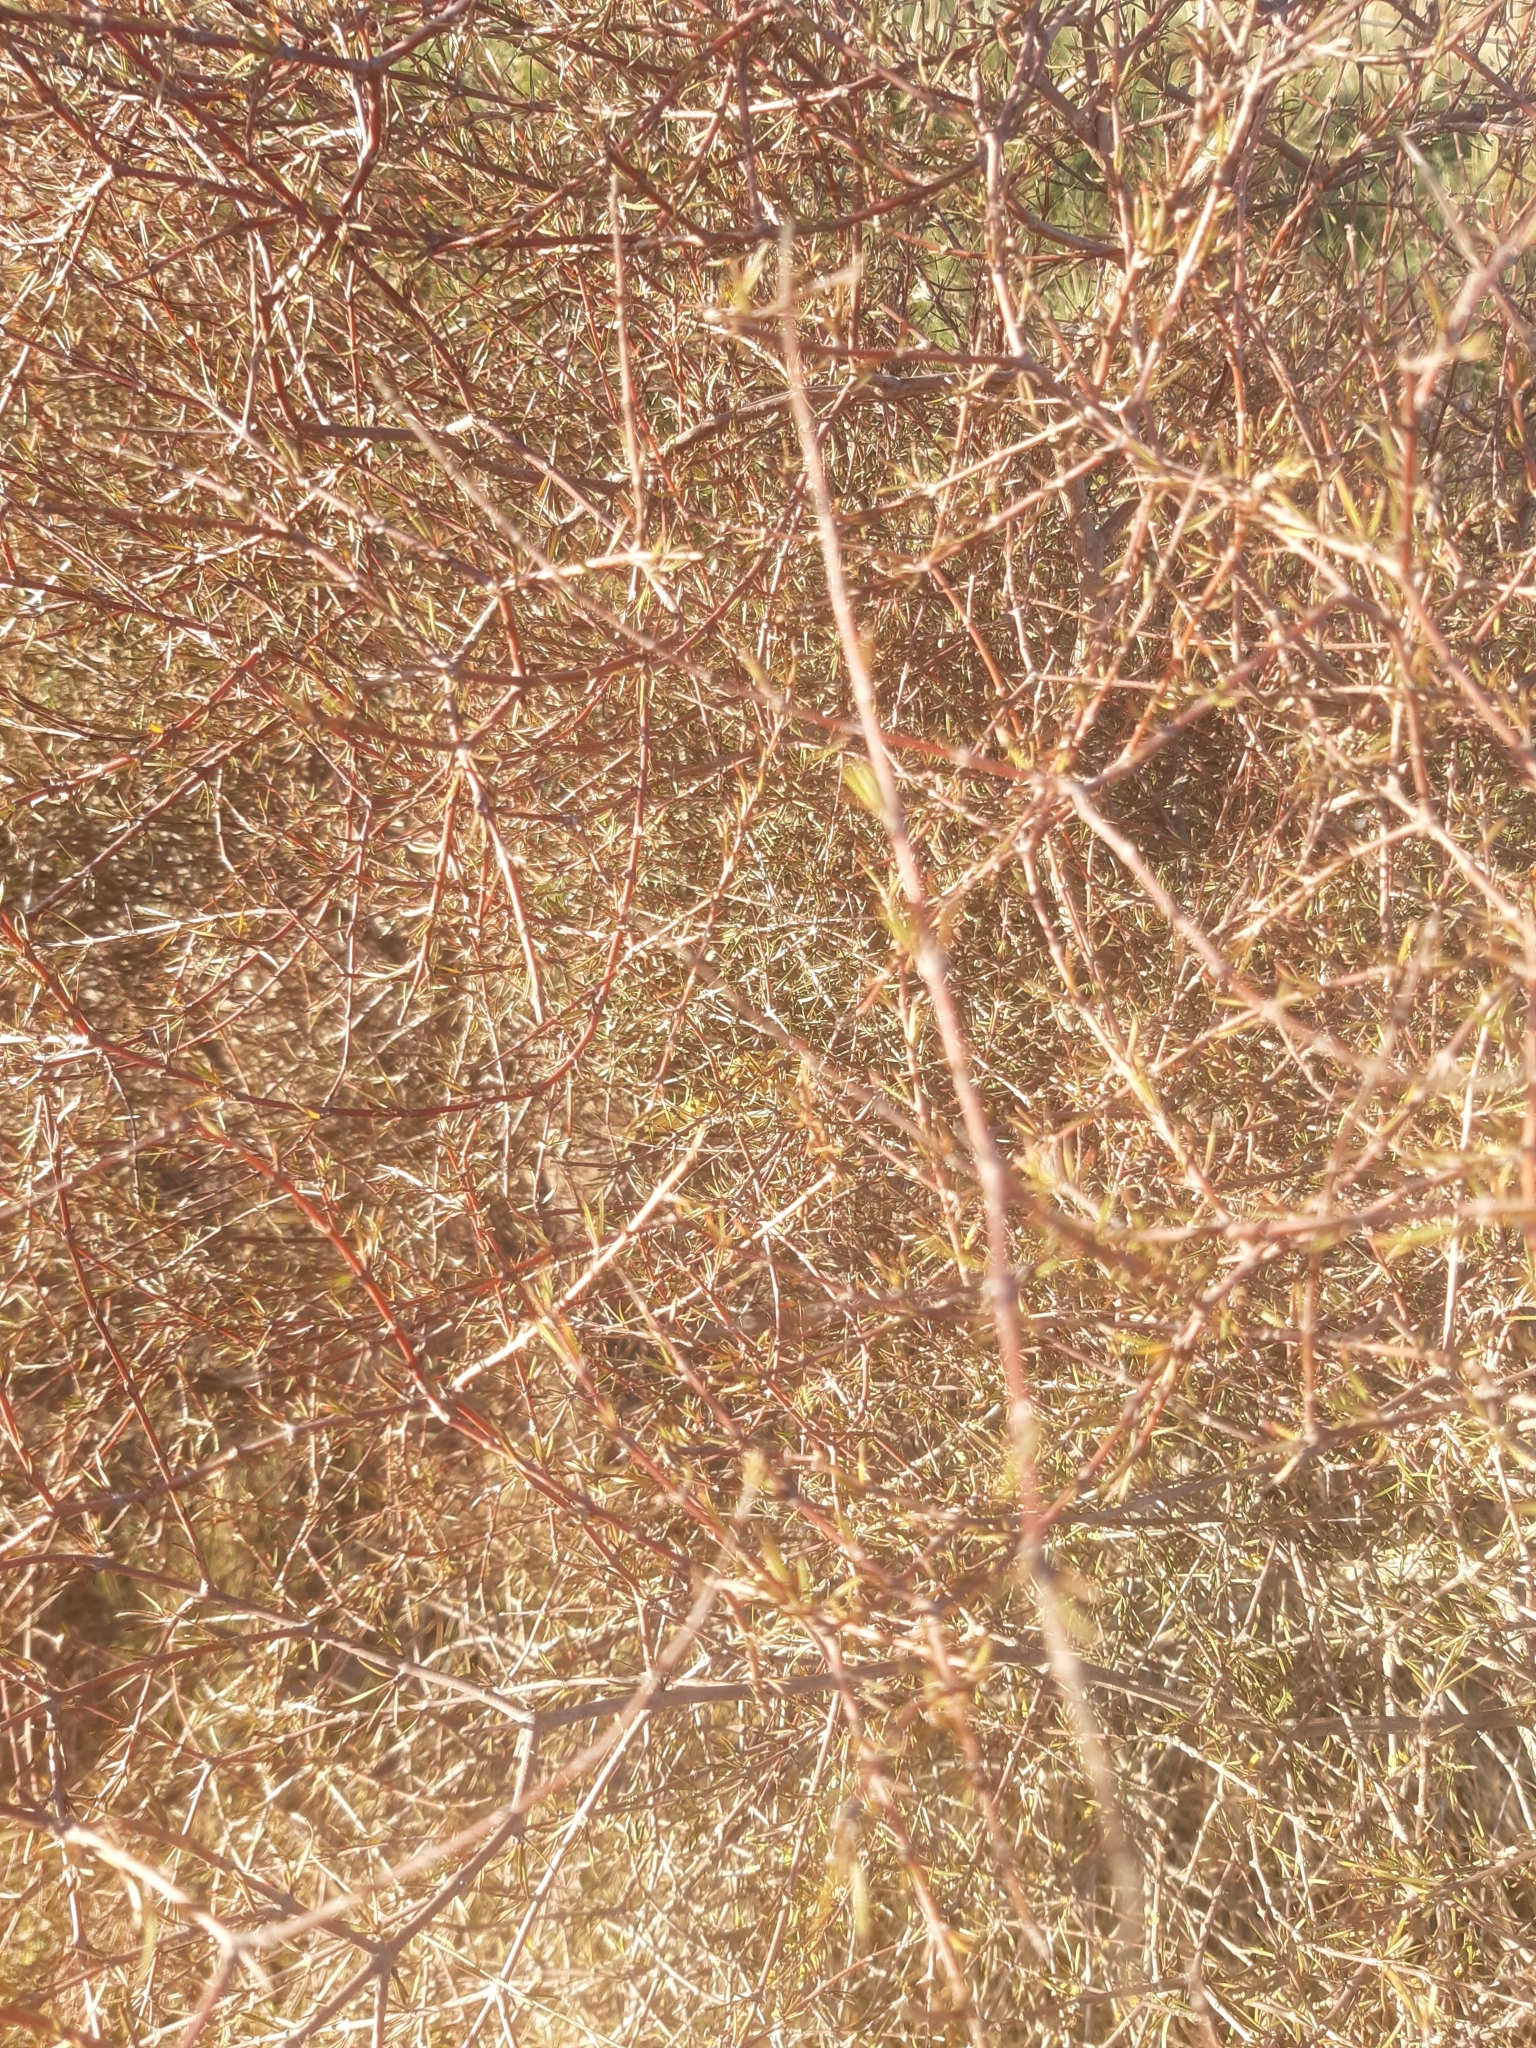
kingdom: Plantae
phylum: Tracheophyta
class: Magnoliopsida
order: Gentianales
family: Rubiaceae
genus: Coprosma
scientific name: Coprosma intertexta
